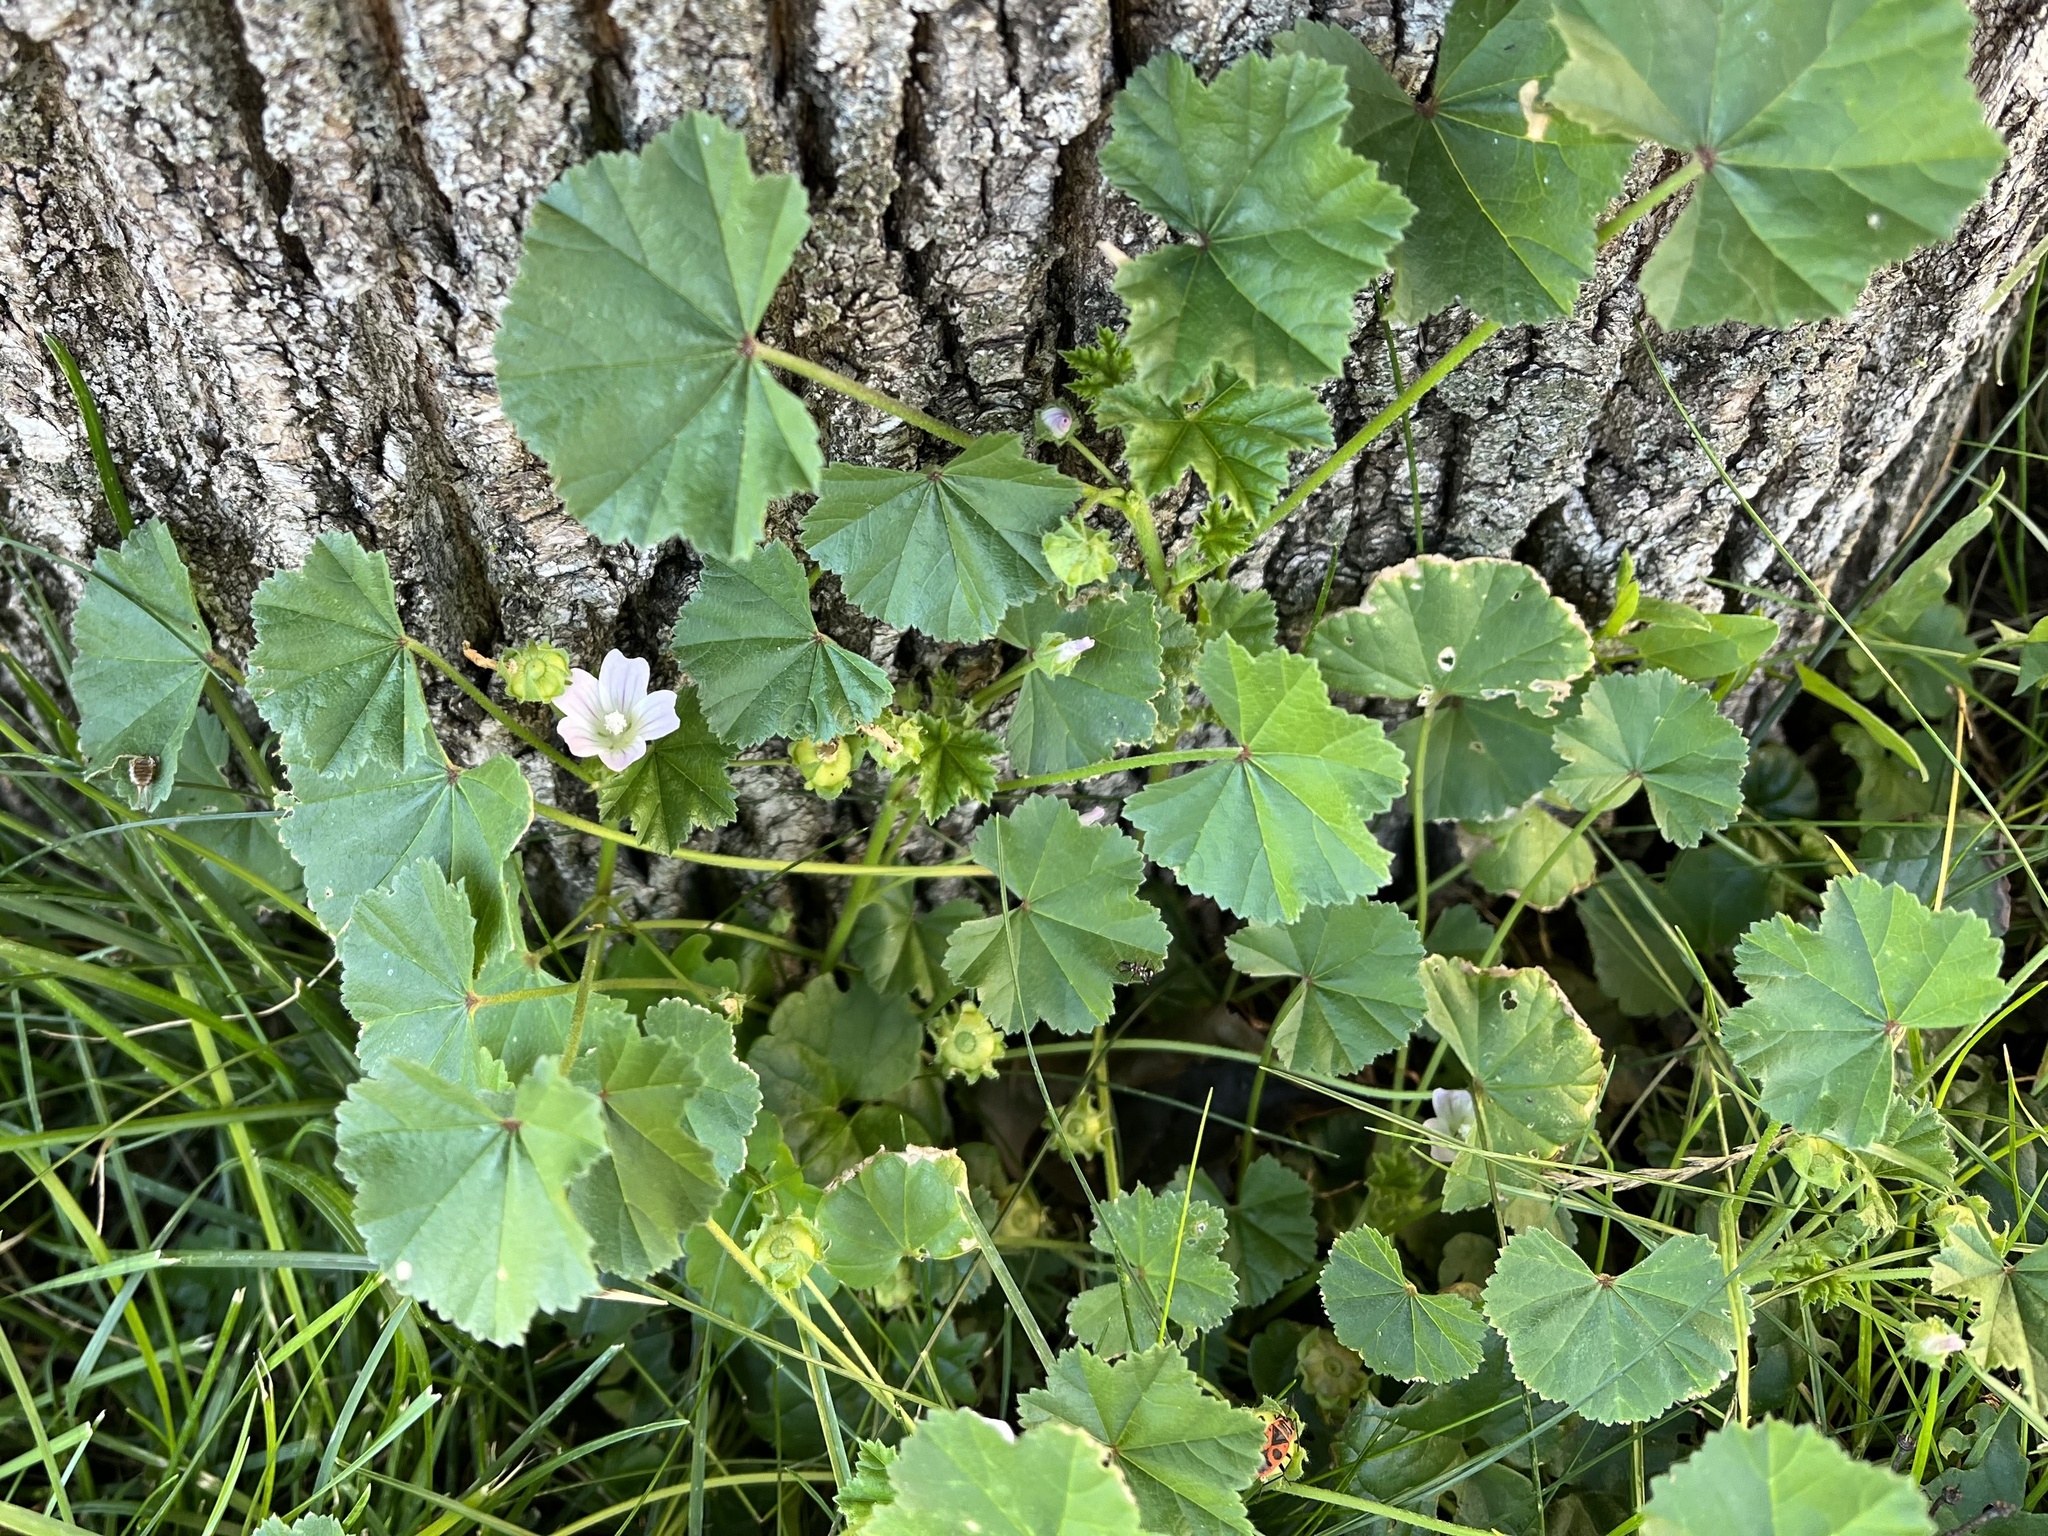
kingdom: Plantae
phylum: Tracheophyta
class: Magnoliopsida
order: Malvales
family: Malvaceae
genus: Malva
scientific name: Malva neglecta
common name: Common mallow
